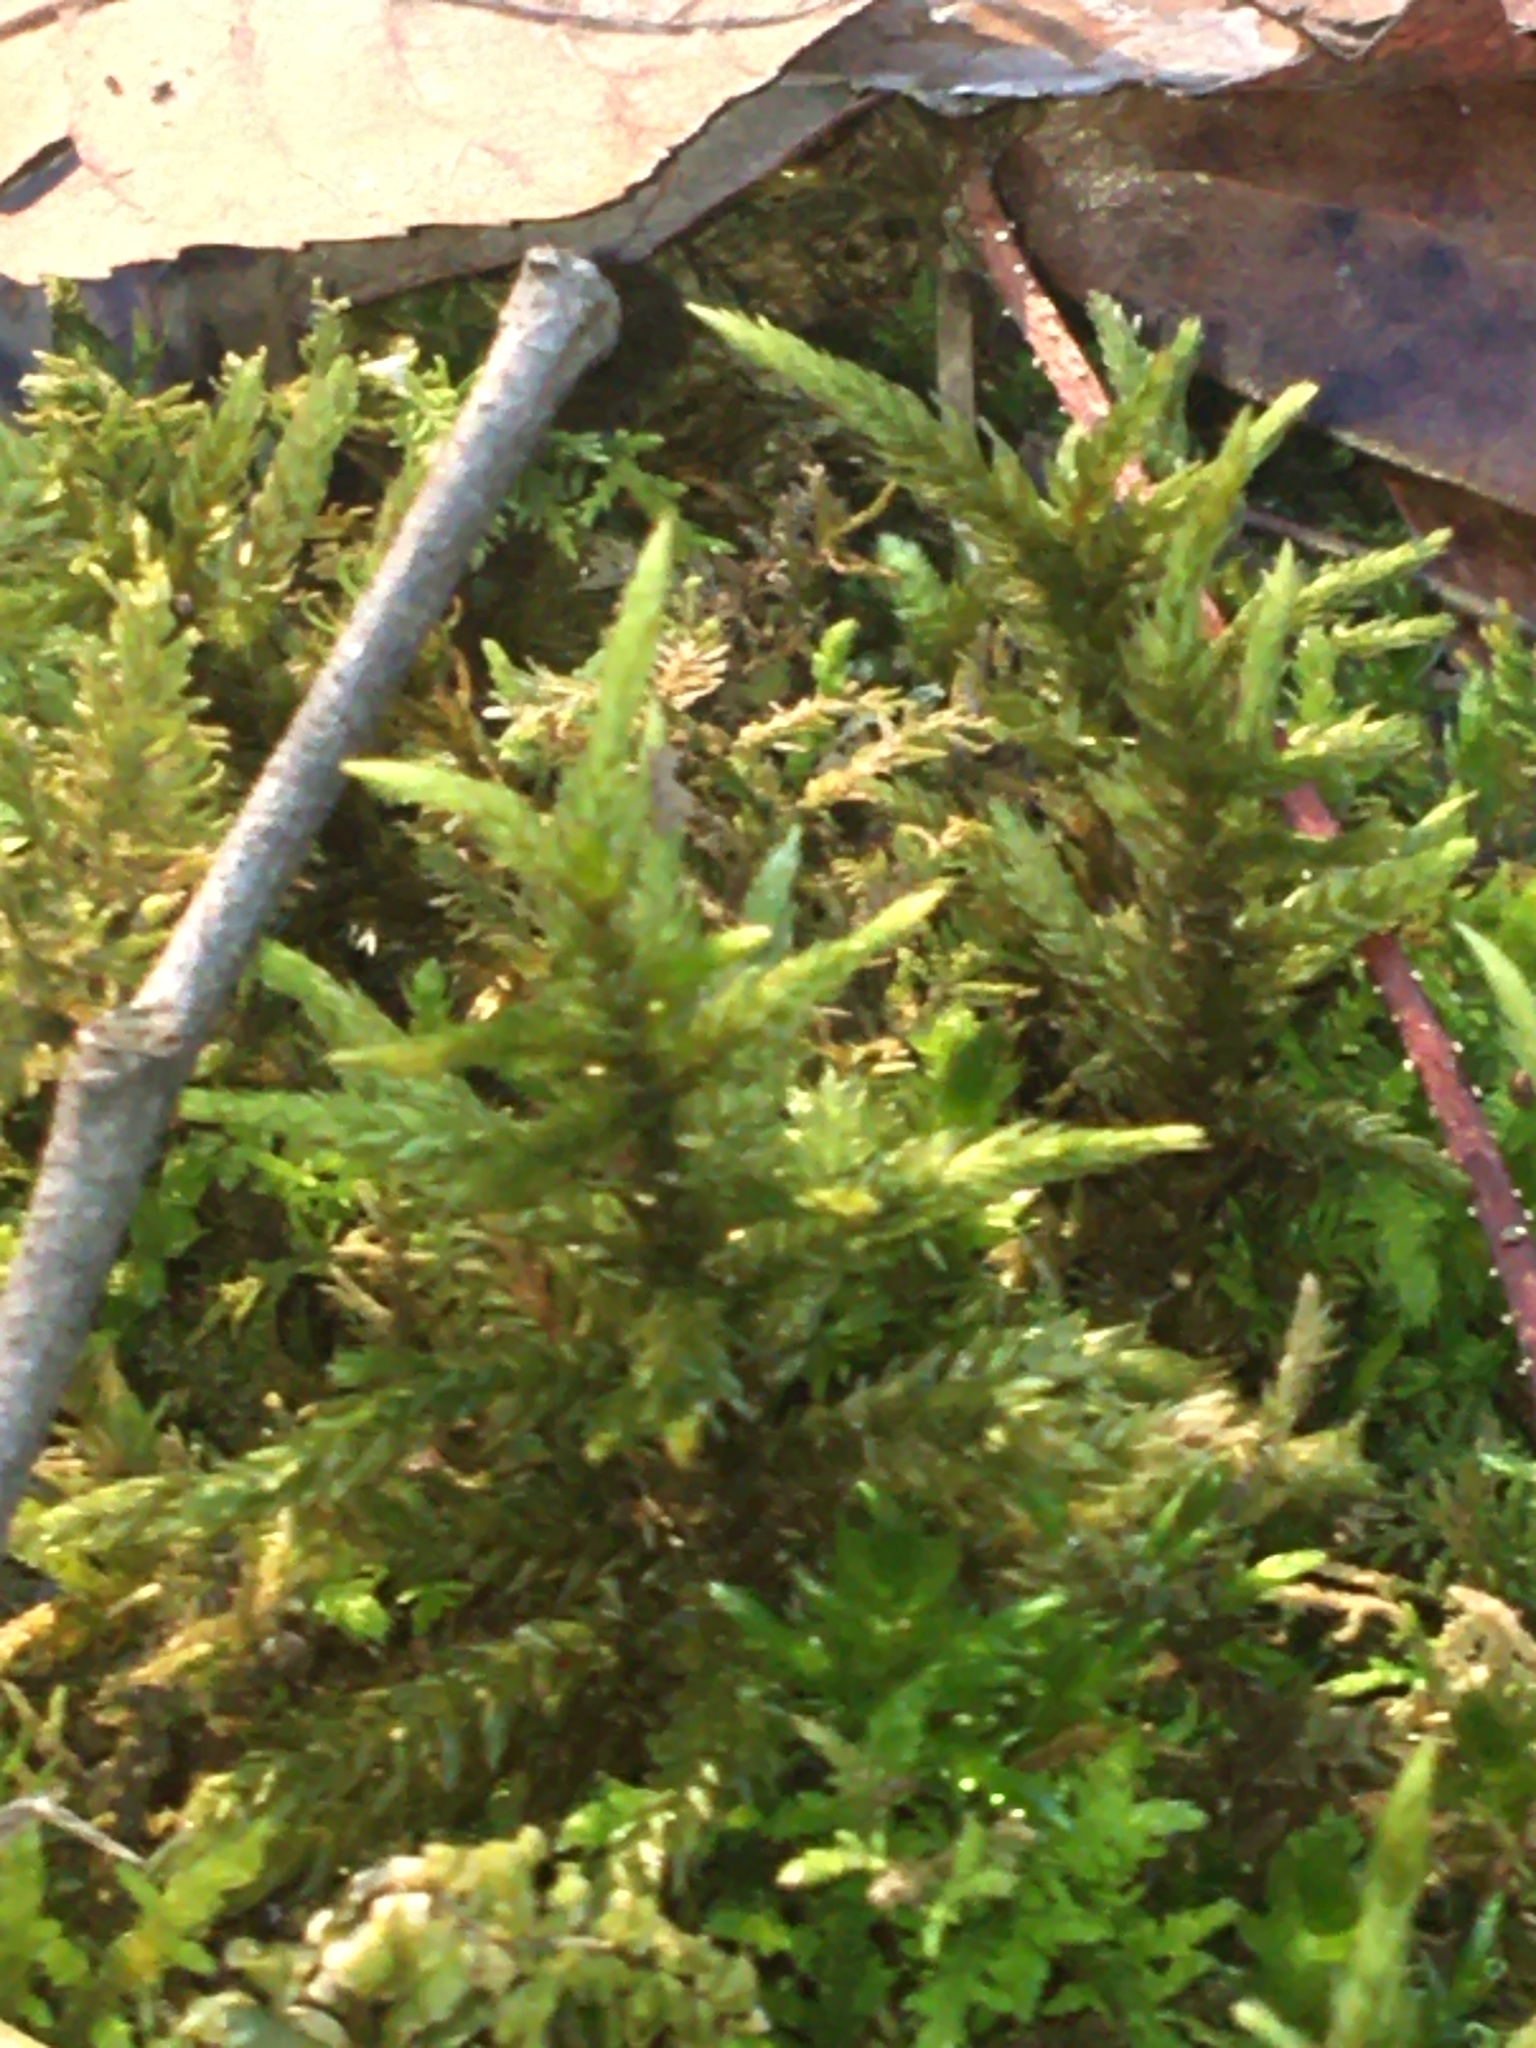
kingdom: Plantae
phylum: Bryophyta
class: Bryopsida
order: Hypnales
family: Climaciaceae
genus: Climacium
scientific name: Climacium americanum
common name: American tree moss
